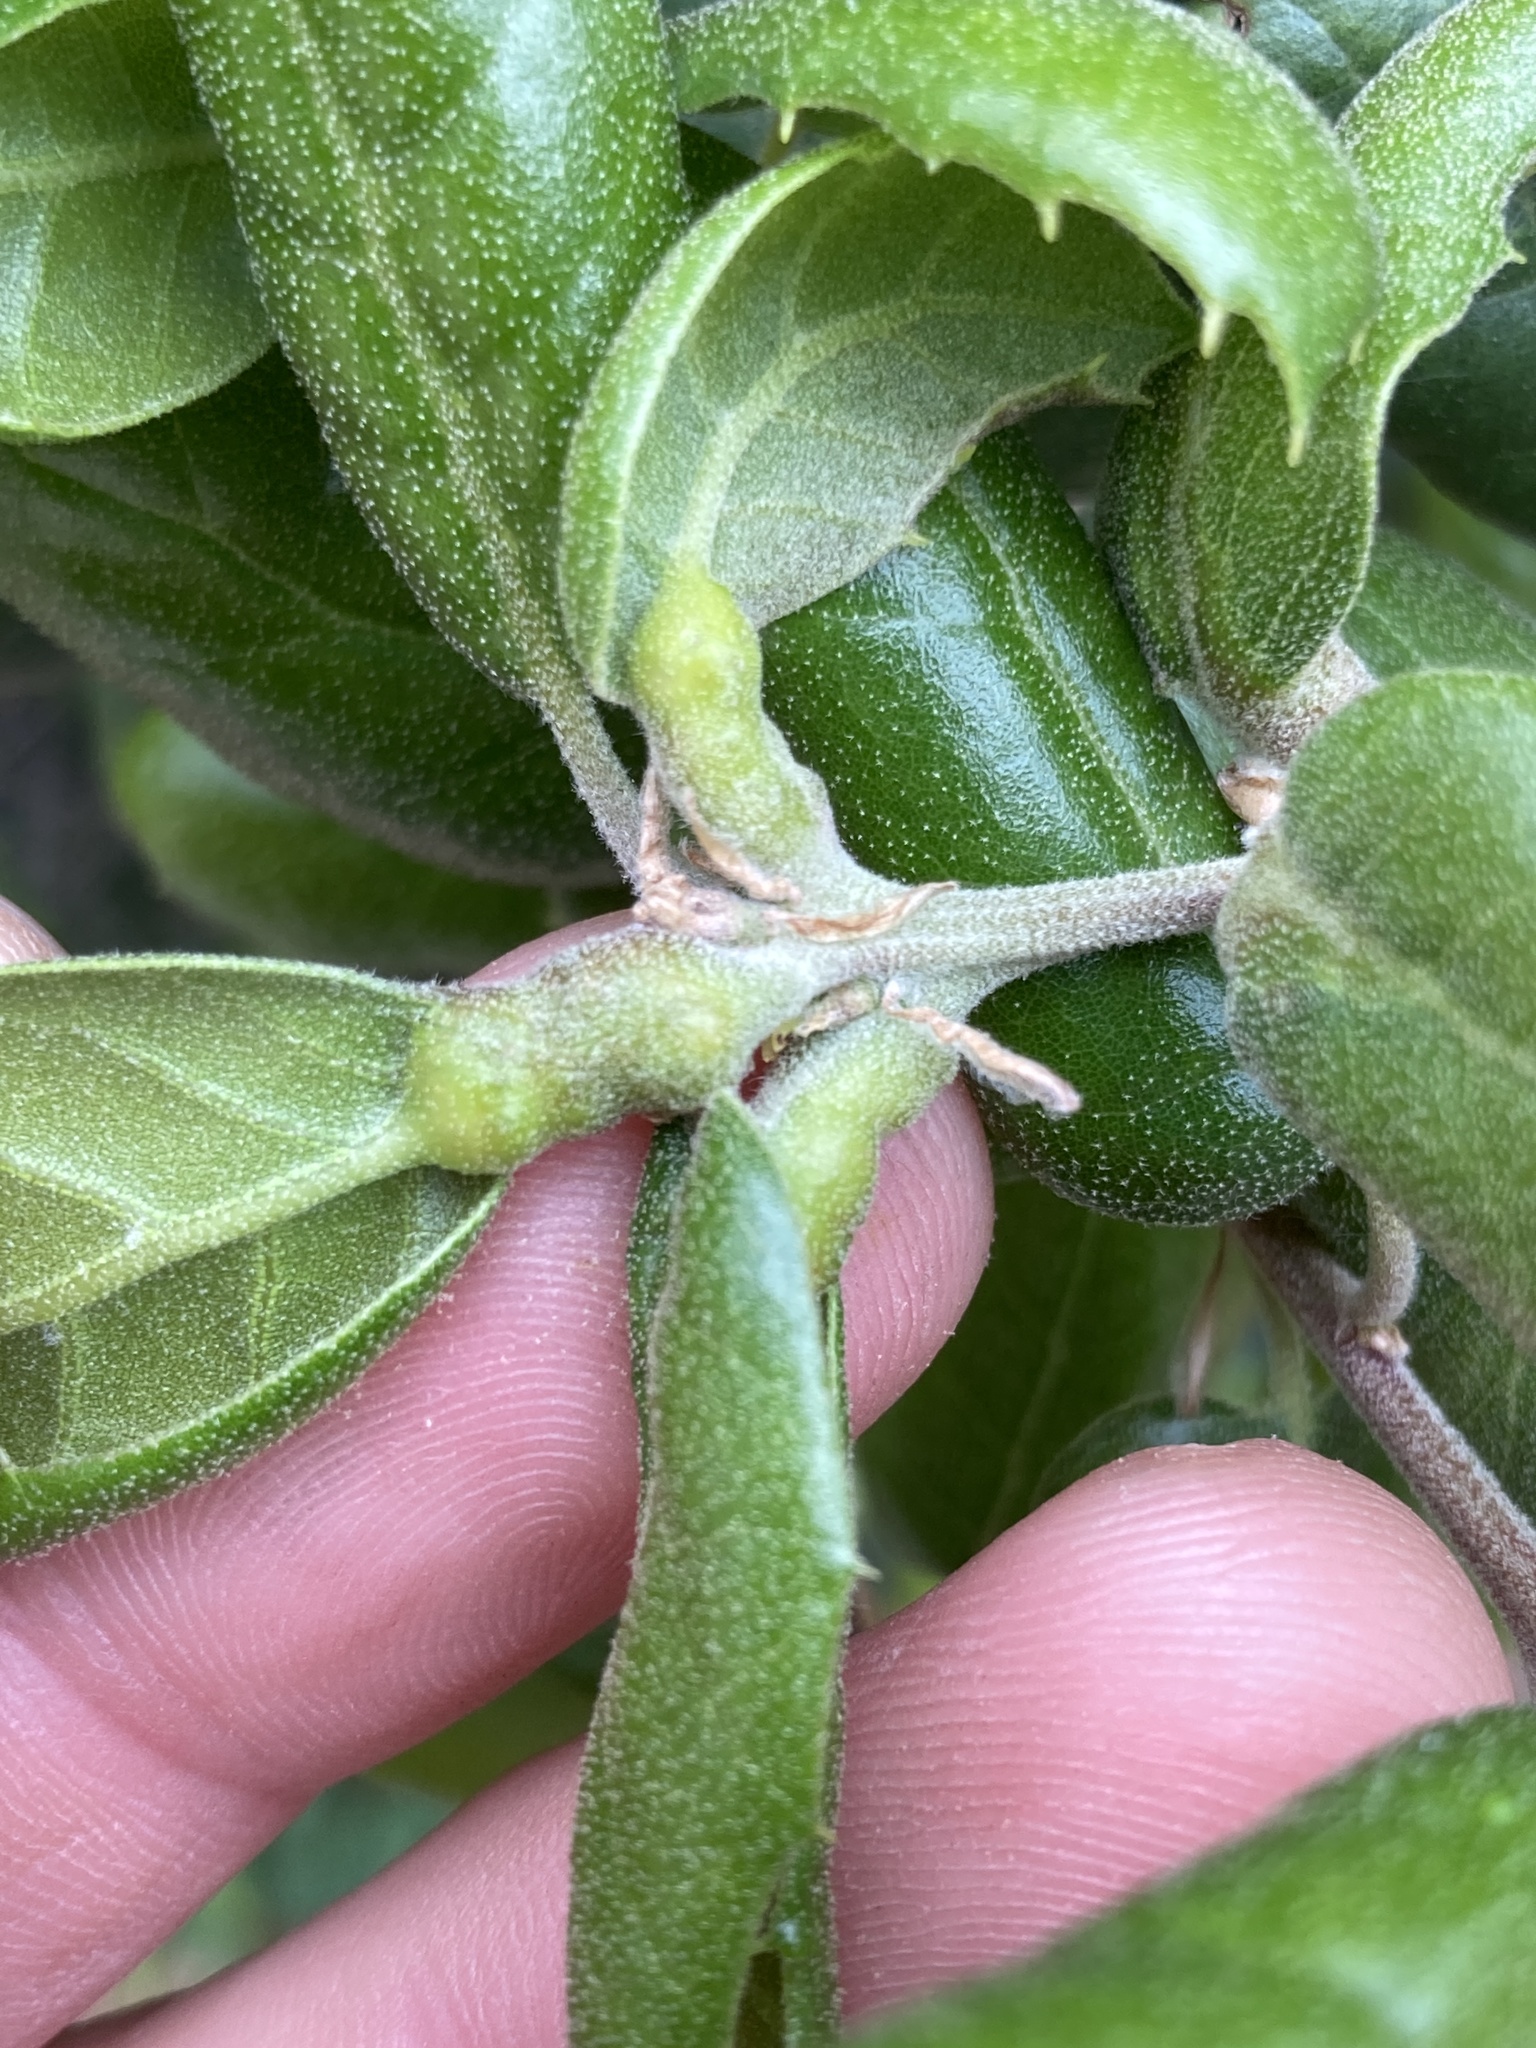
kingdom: Animalia
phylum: Arthropoda
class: Insecta
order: Hymenoptera
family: Cynipidae
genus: Melikaiella
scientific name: Melikaiella
